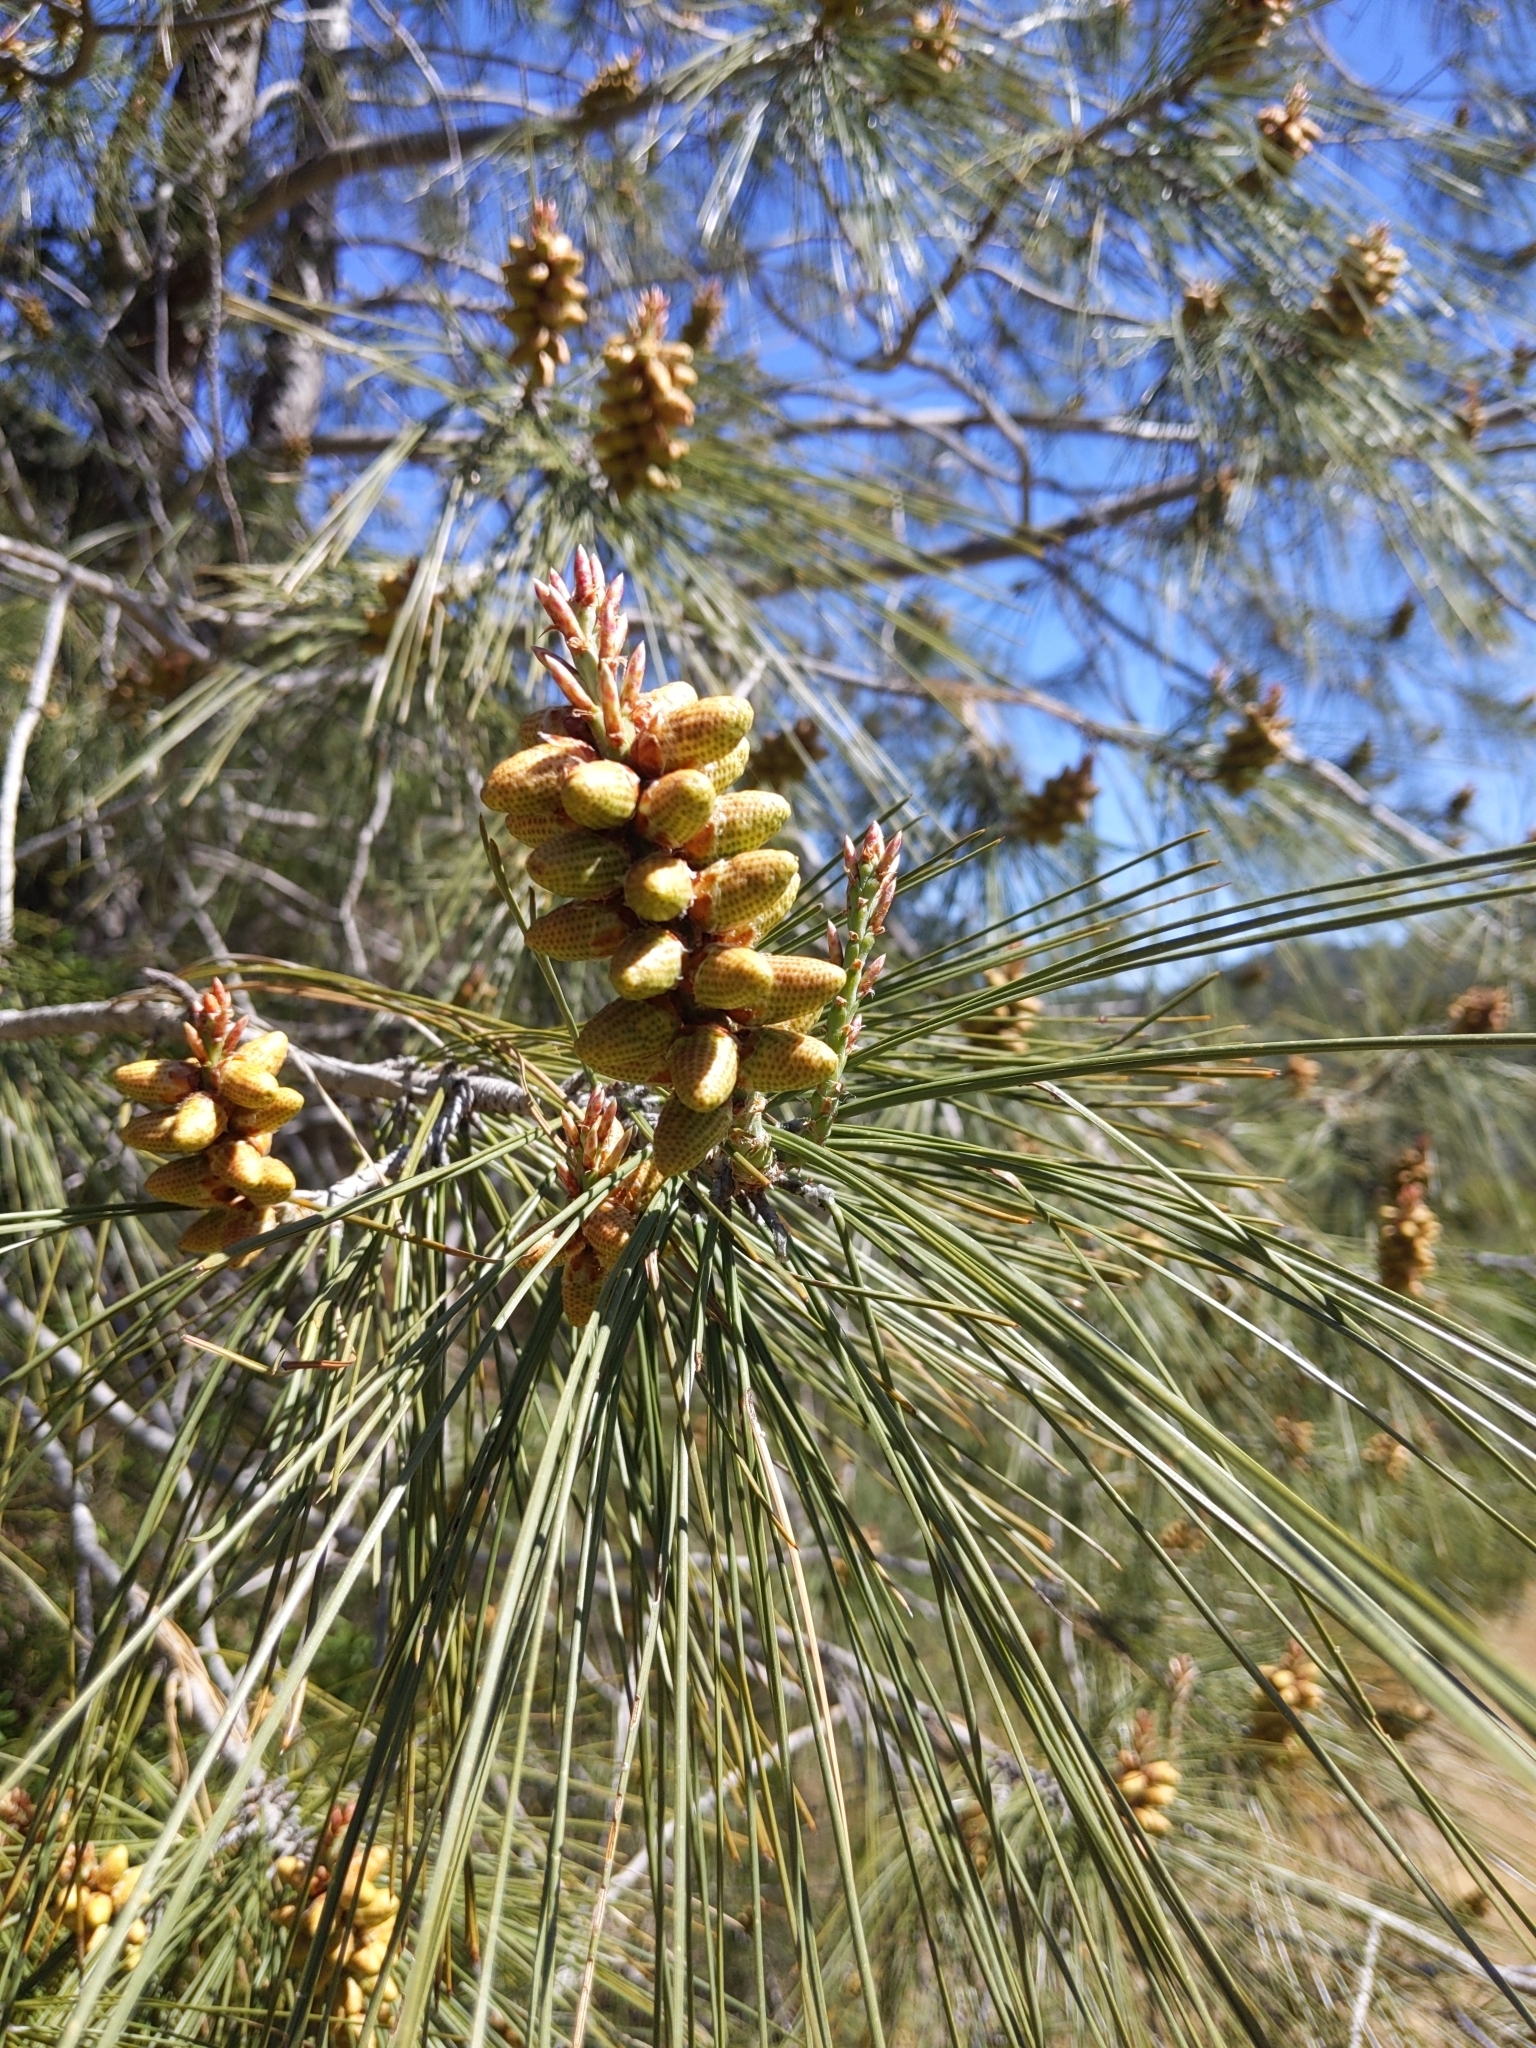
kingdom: Plantae
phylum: Tracheophyta
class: Pinopsida
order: Pinales
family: Pinaceae
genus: Pinus
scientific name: Pinus sabiniana
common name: Bull pine
